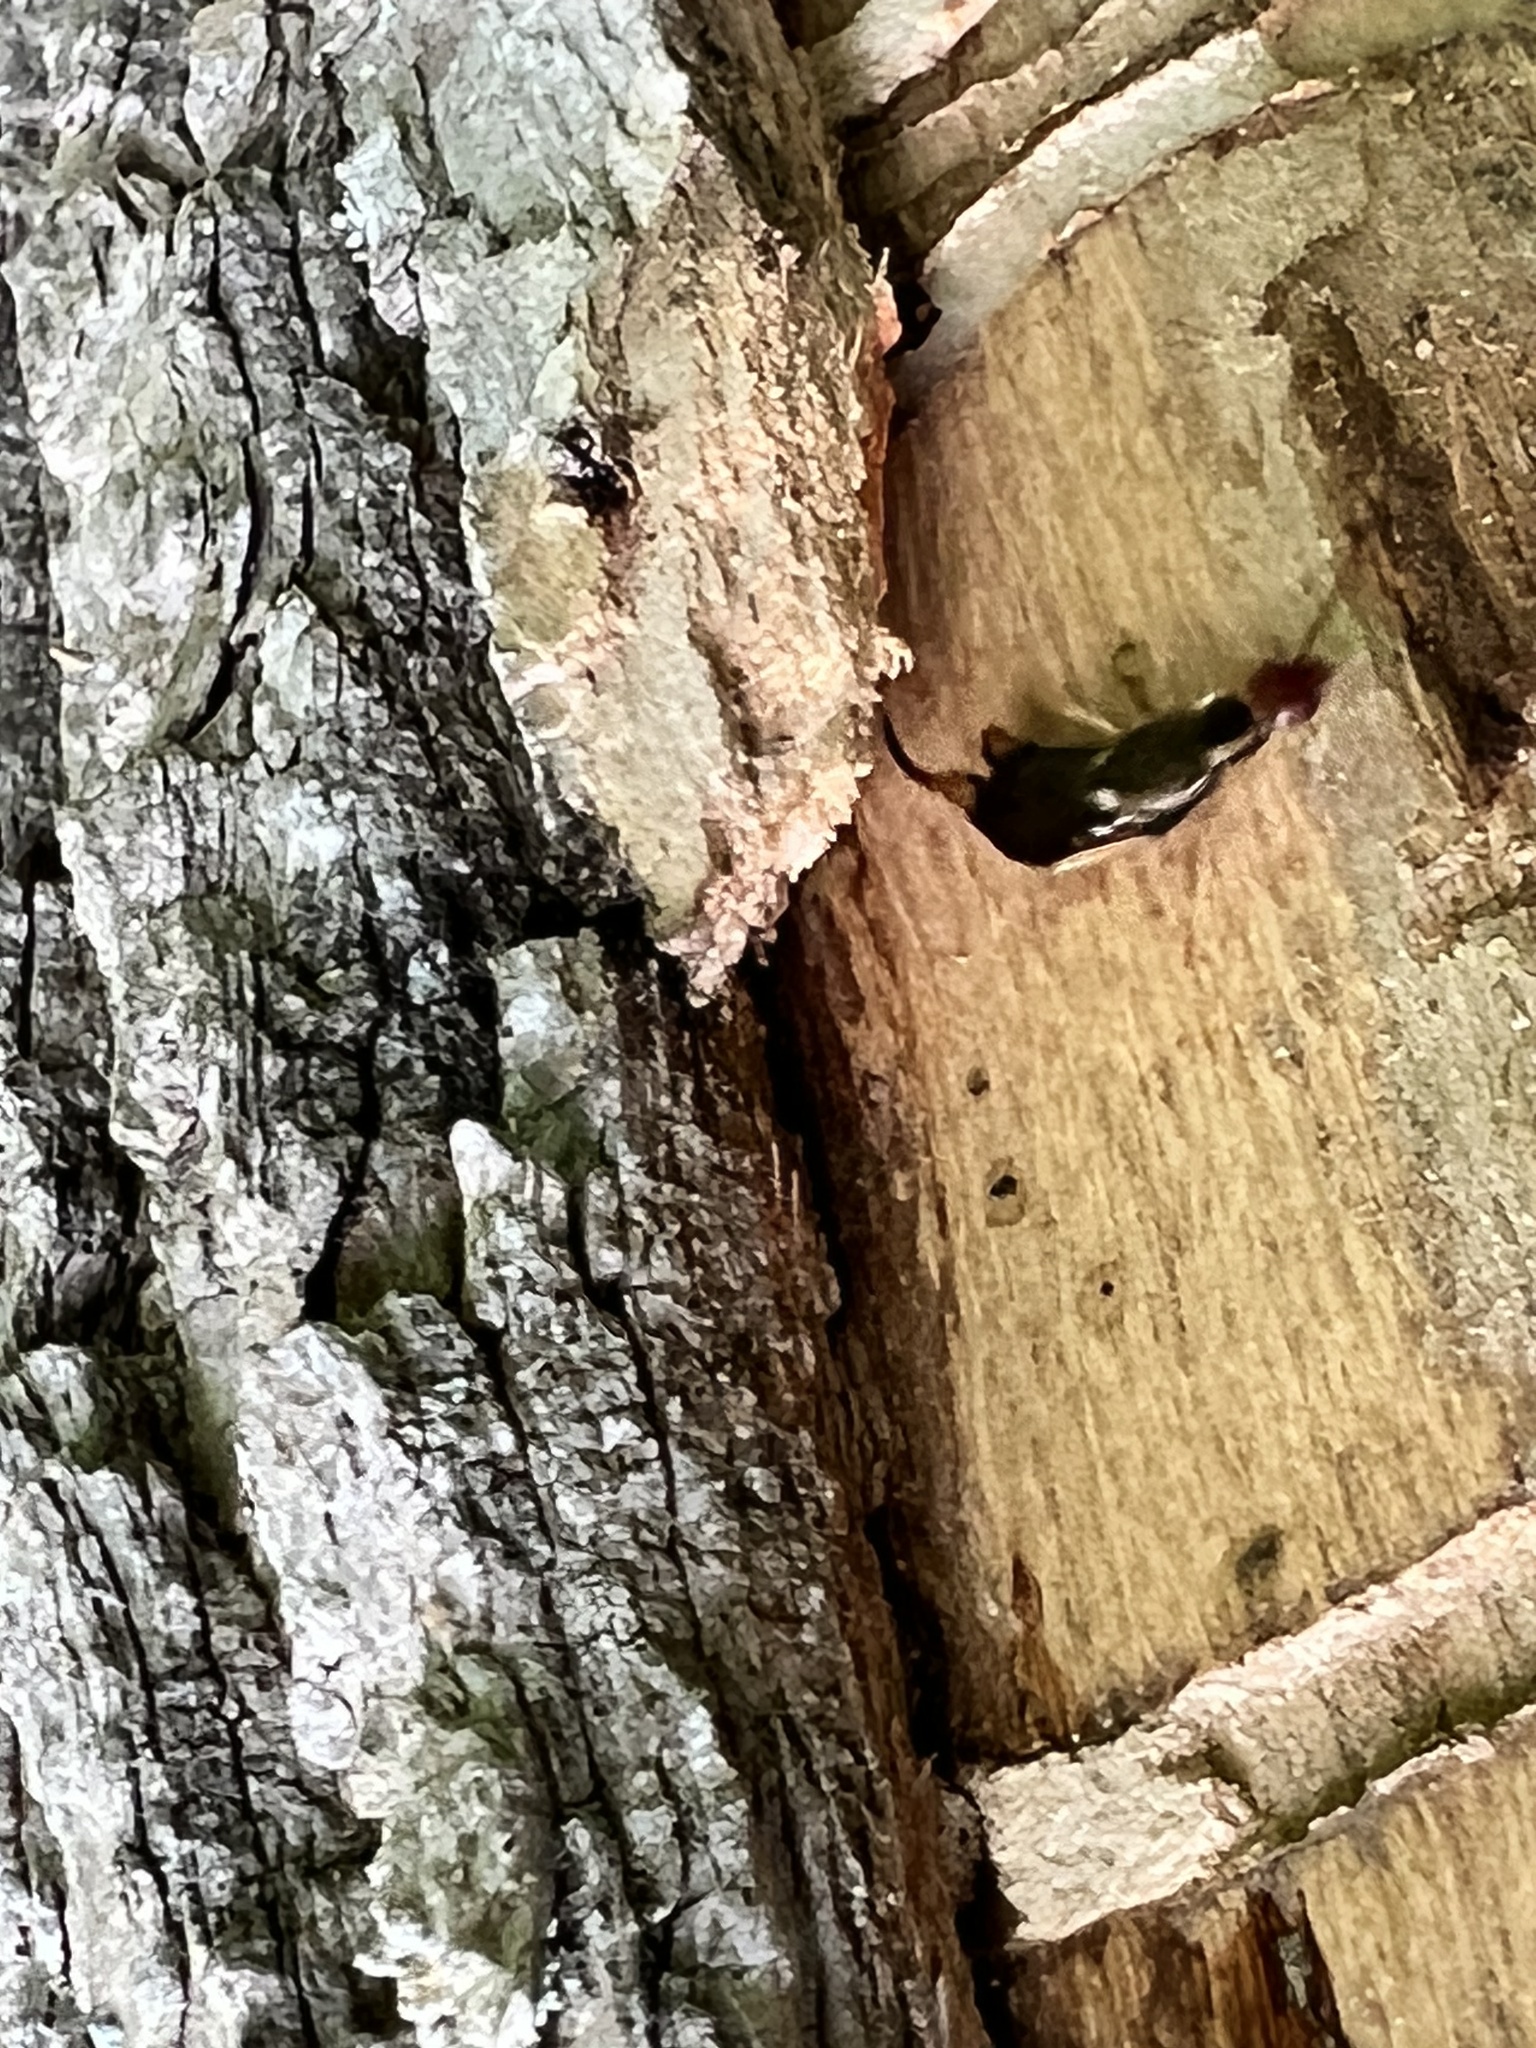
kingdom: Animalia
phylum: Arthropoda
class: Insecta
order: Dermaptera
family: Forficulidae
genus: Forficula
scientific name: Forficula
